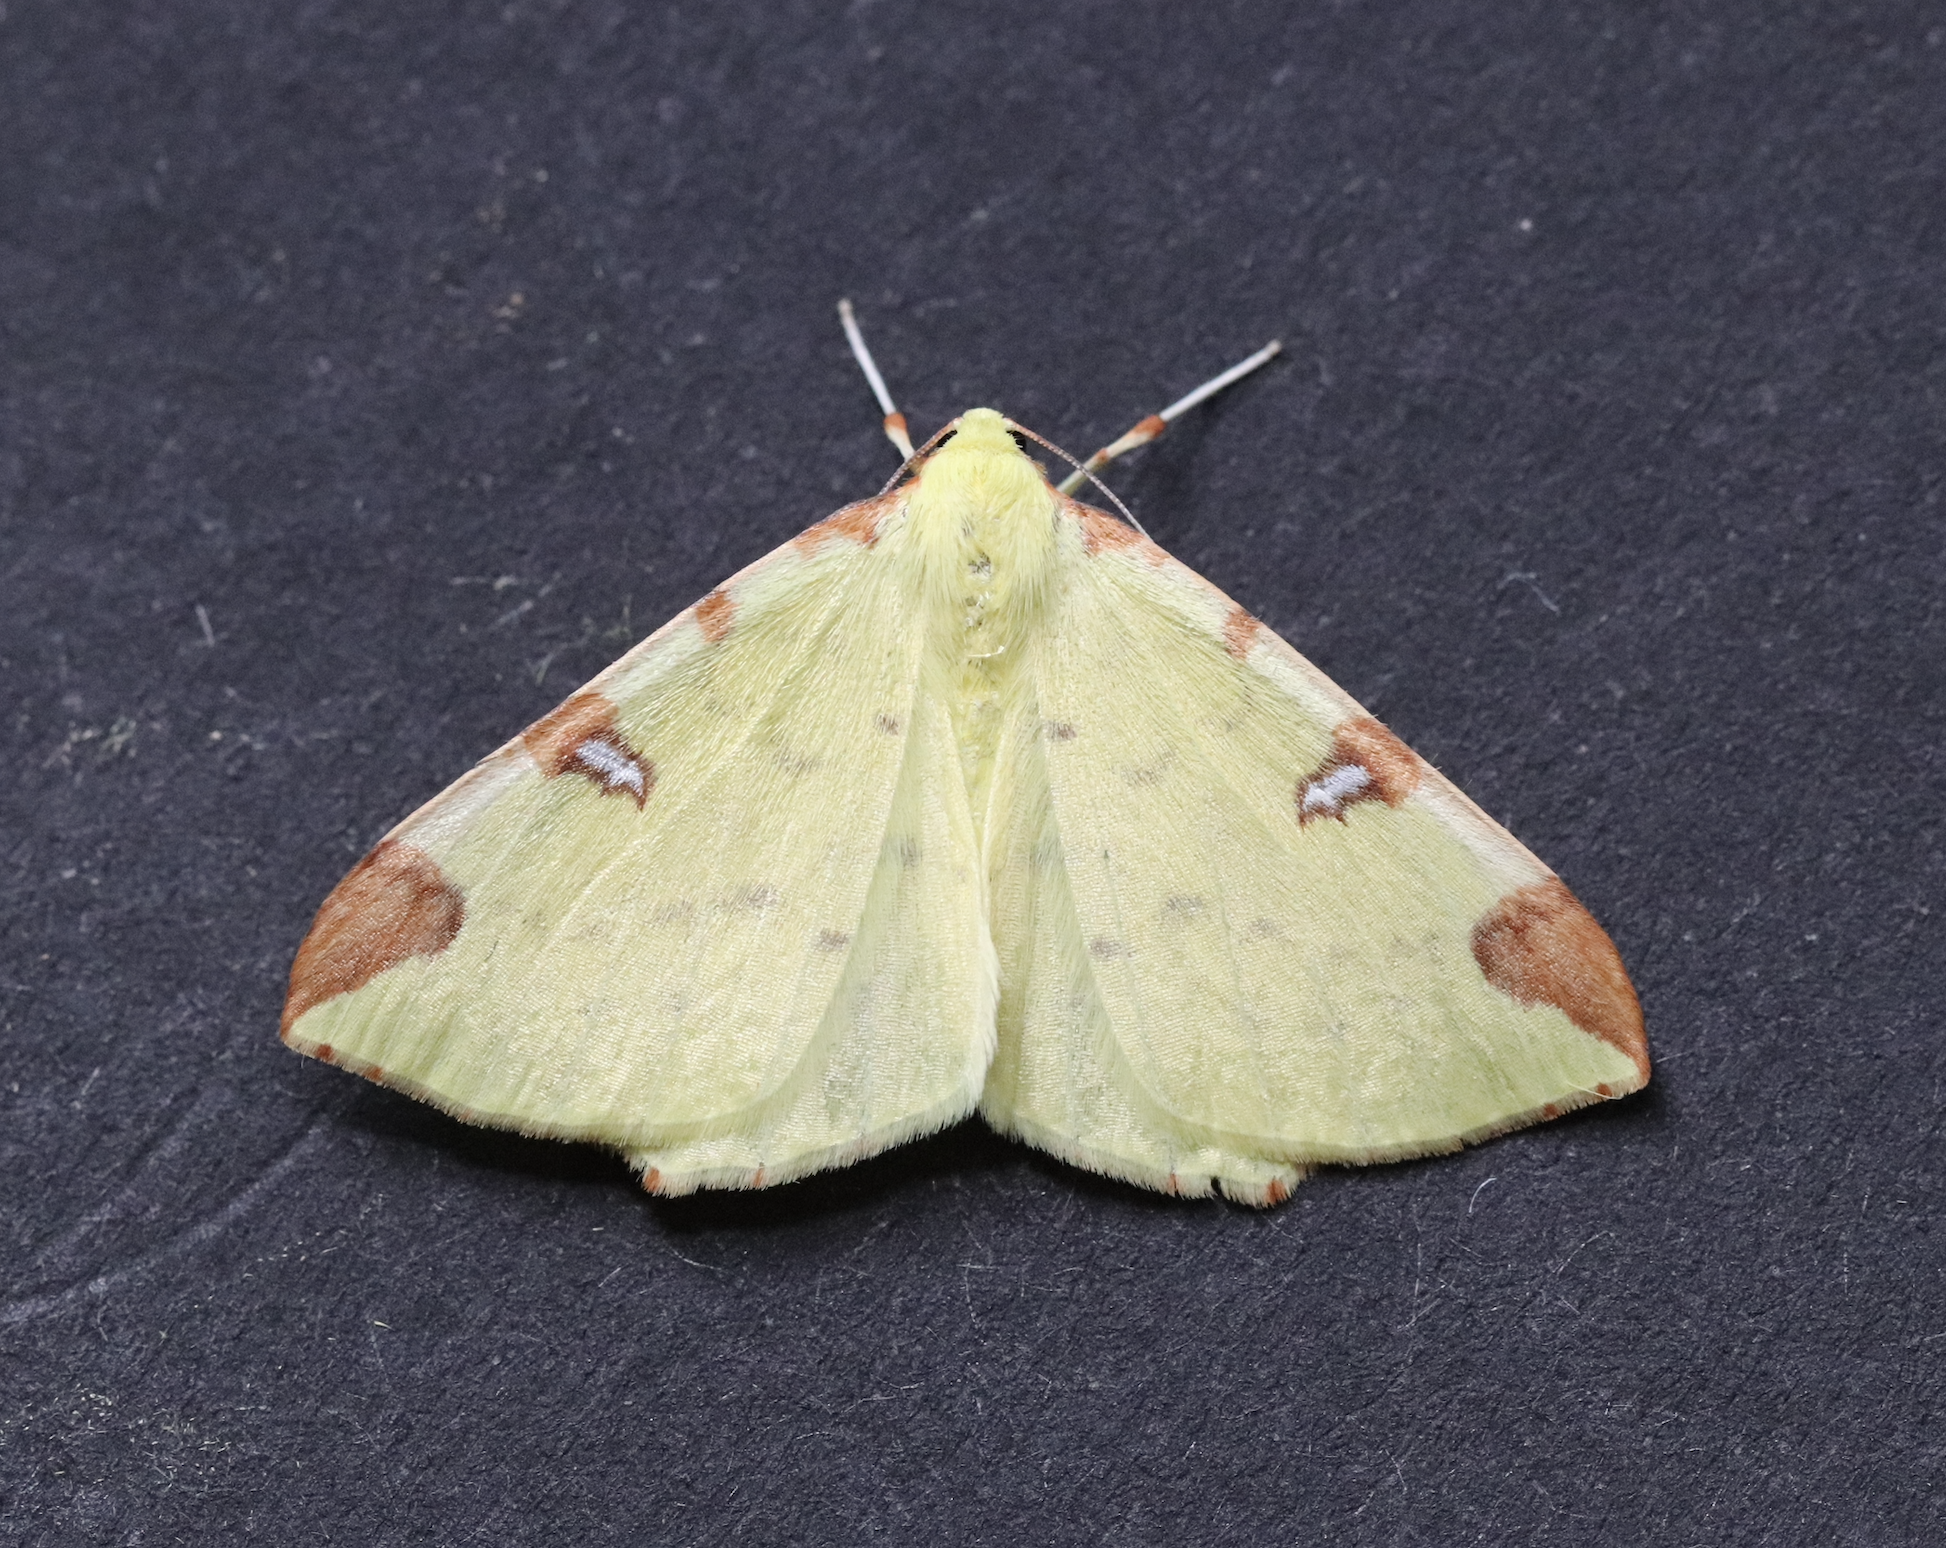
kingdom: Animalia
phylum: Arthropoda
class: Insecta
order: Lepidoptera
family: Geometridae
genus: Opisthograptis
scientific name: Opisthograptis luteolata
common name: Brimstone moth
